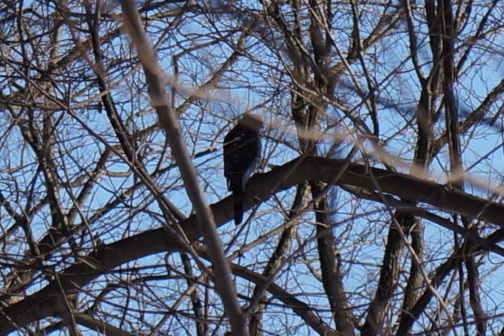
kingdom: Animalia
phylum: Chordata
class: Aves
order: Accipitriformes
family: Accipitridae
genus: Accipiter
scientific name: Accipiter cooperii
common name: Cooper's hawk
